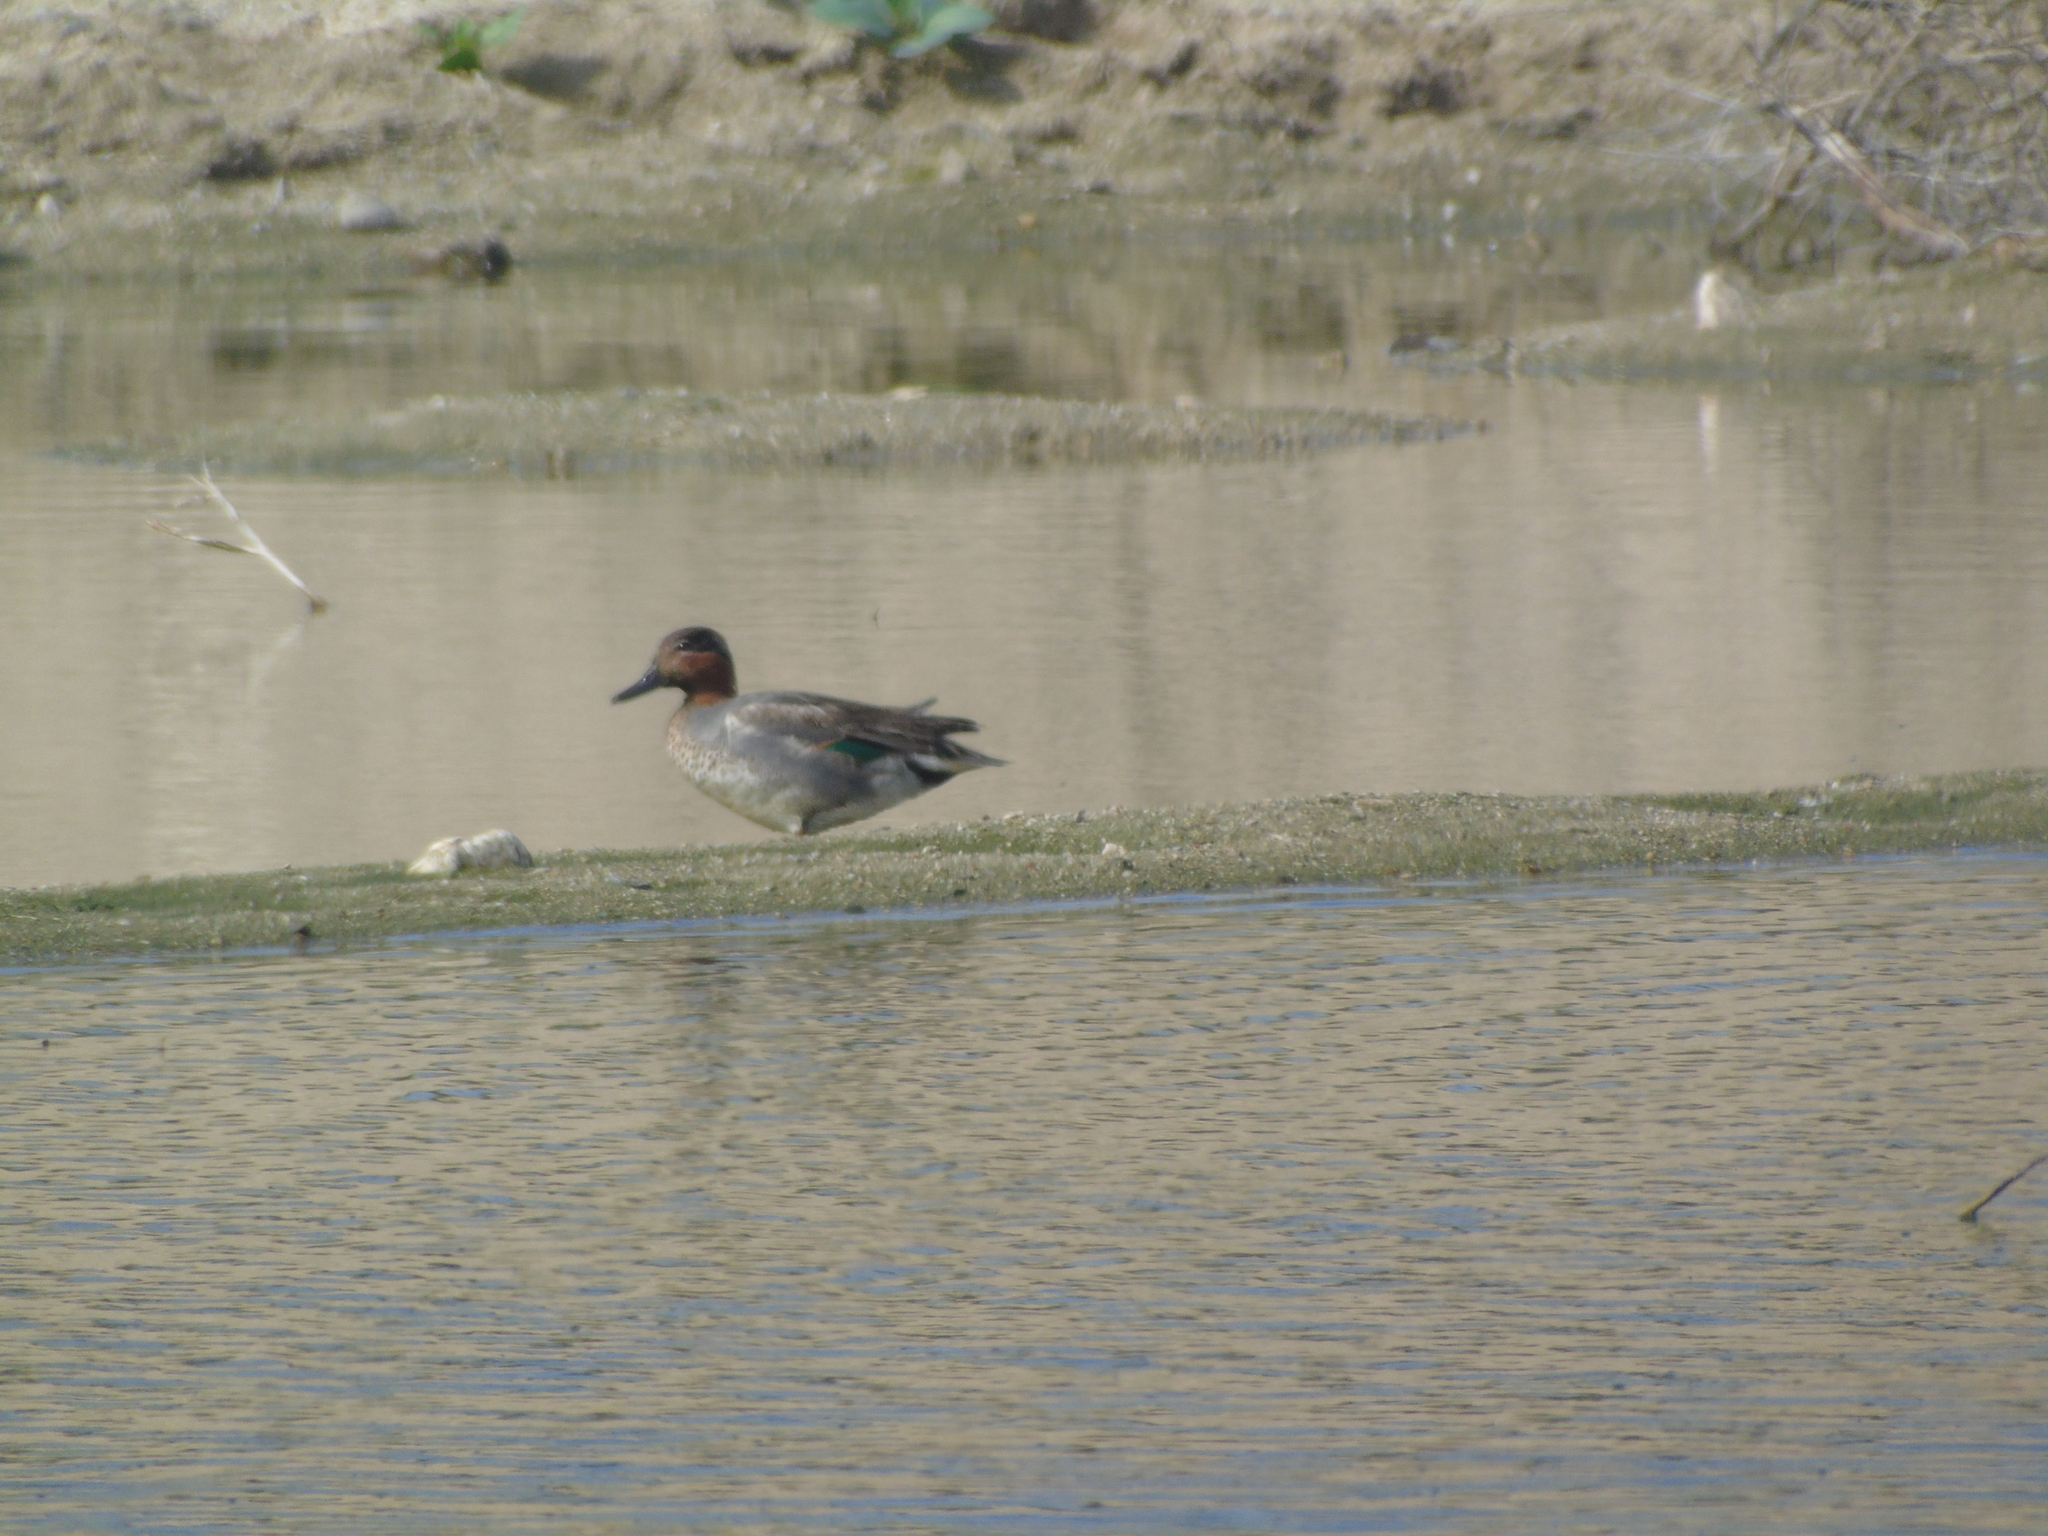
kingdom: Animalia
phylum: Chordata
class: Aves
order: Anseriformes
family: Anatidae
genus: Anas
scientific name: Anas crecca
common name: Eurasian teal
